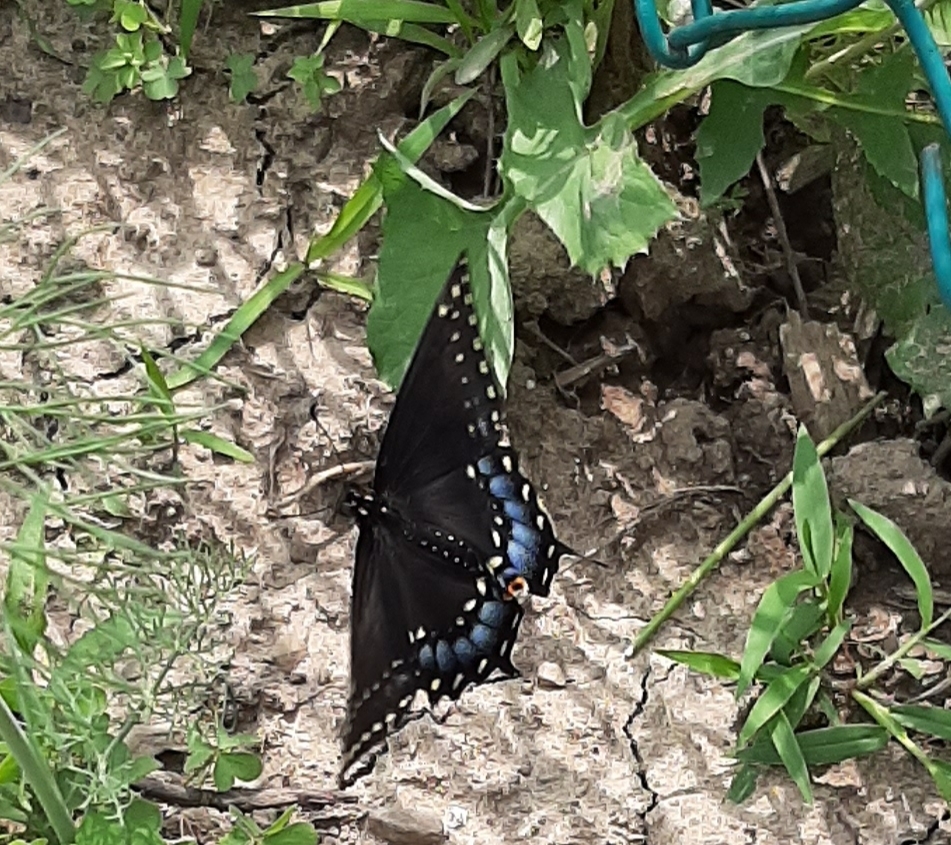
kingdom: Animalia
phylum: Arthropoda
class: Insecta
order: Lepidoptera
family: Papilionidae
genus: Papilio
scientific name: Papilio polyxenes
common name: Black swallowtail
